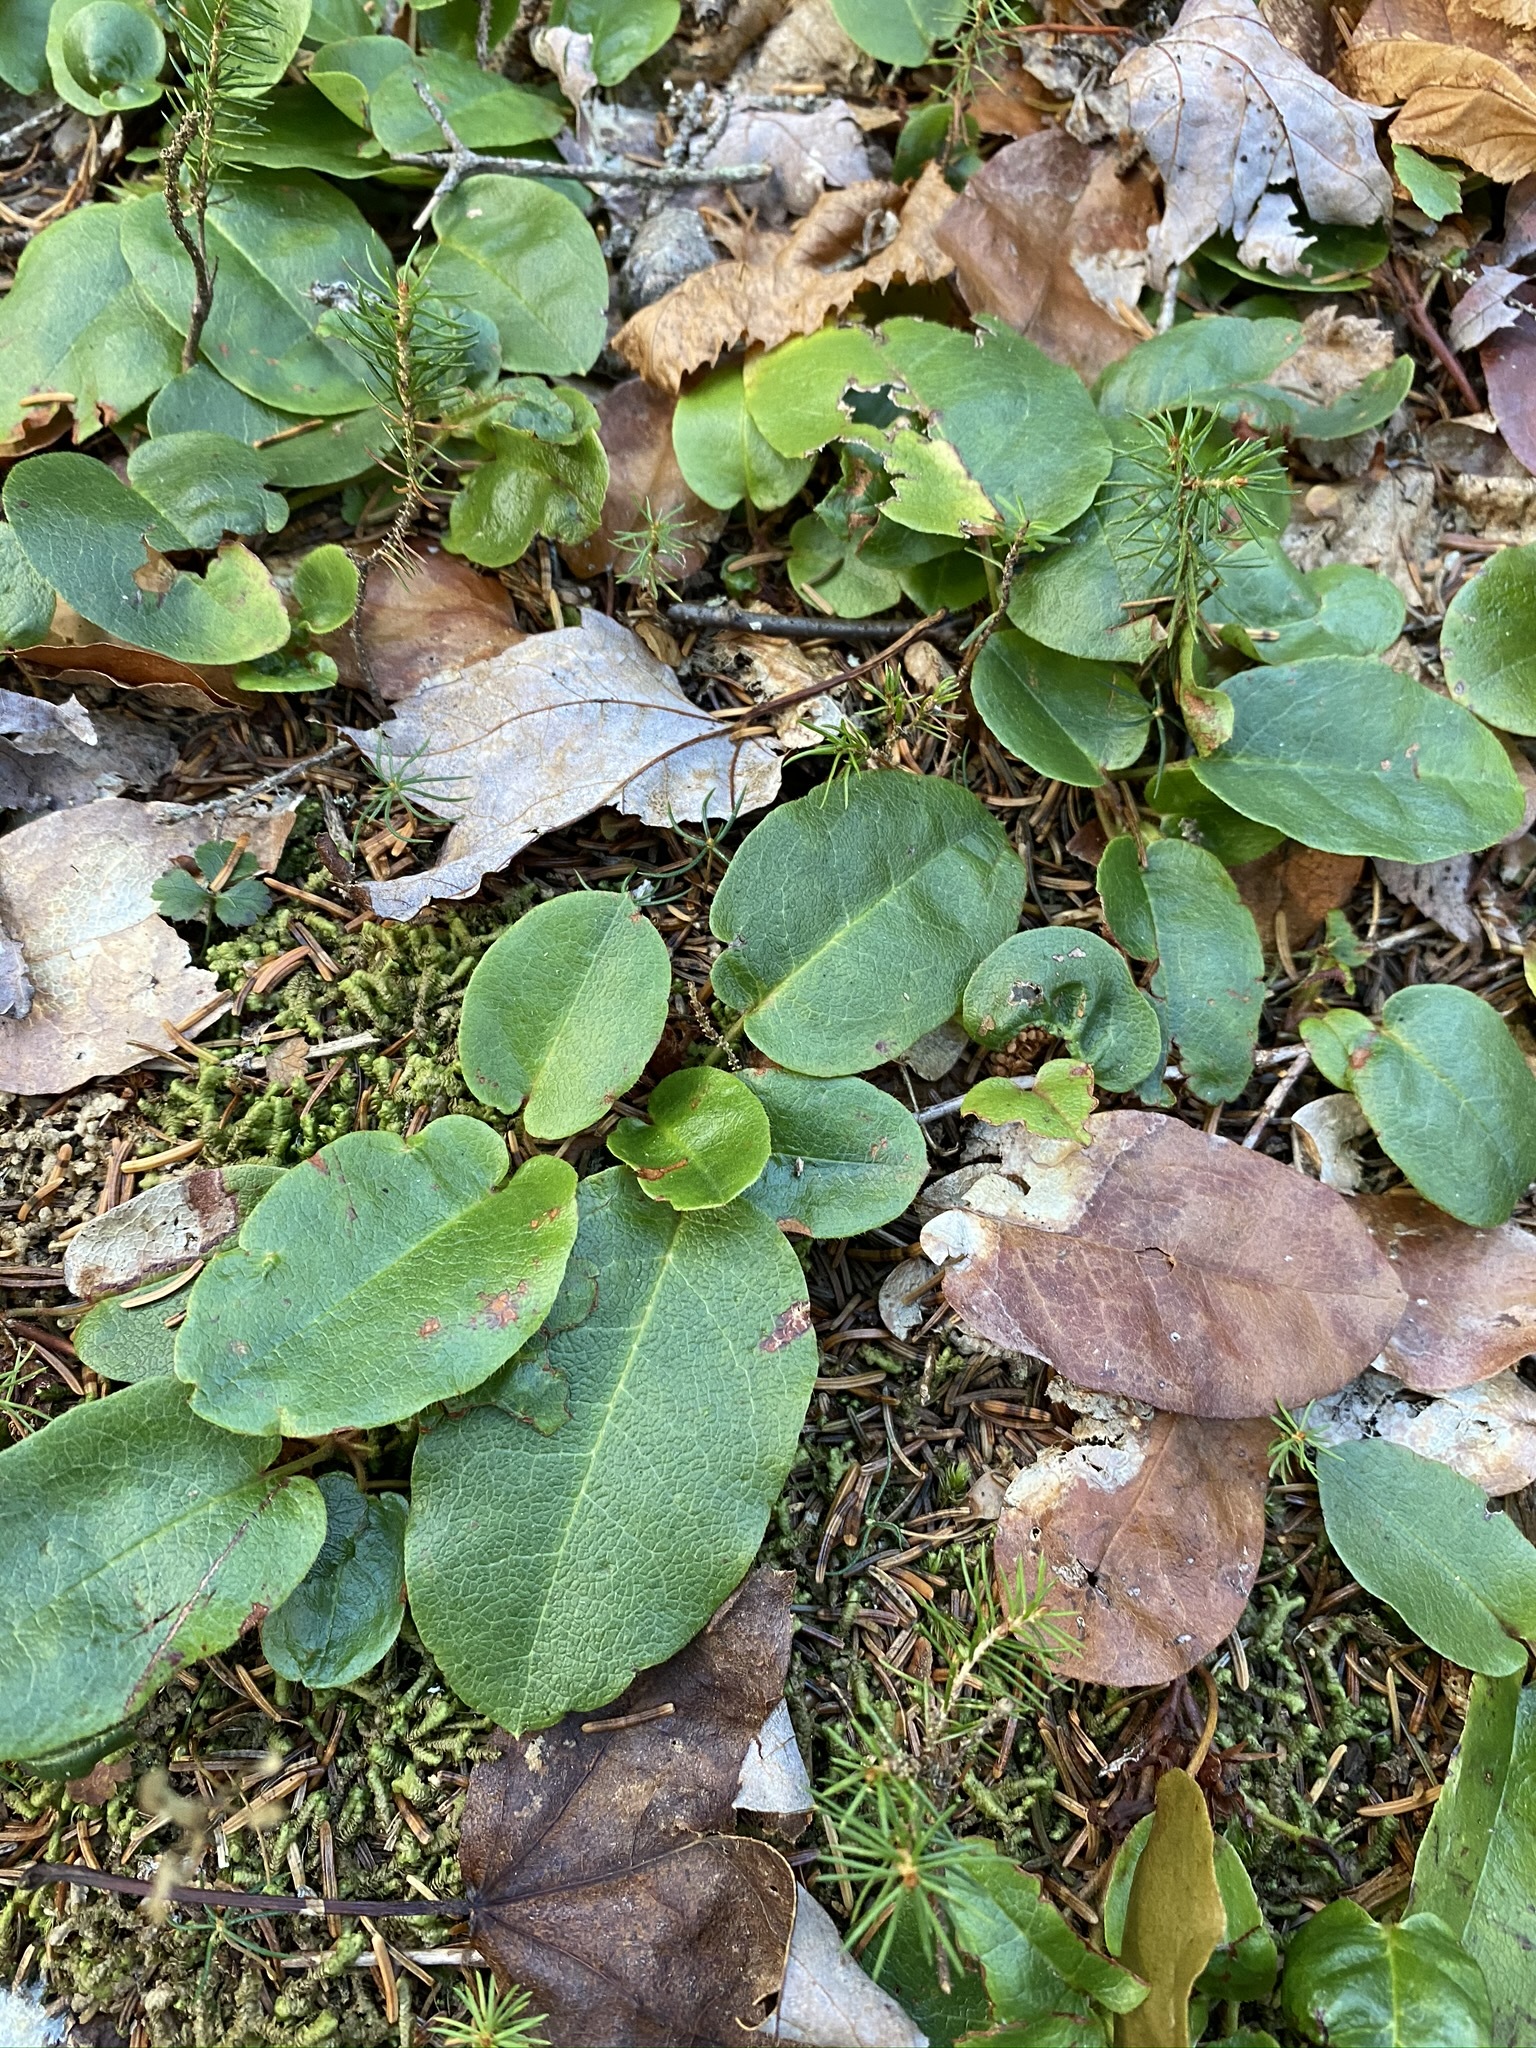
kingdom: Plantae
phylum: Tracheophyta
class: Magnoliopsida
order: Ericales
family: Ericaceae
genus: Epigaea
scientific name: Epigaea repens
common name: Gravelroot
